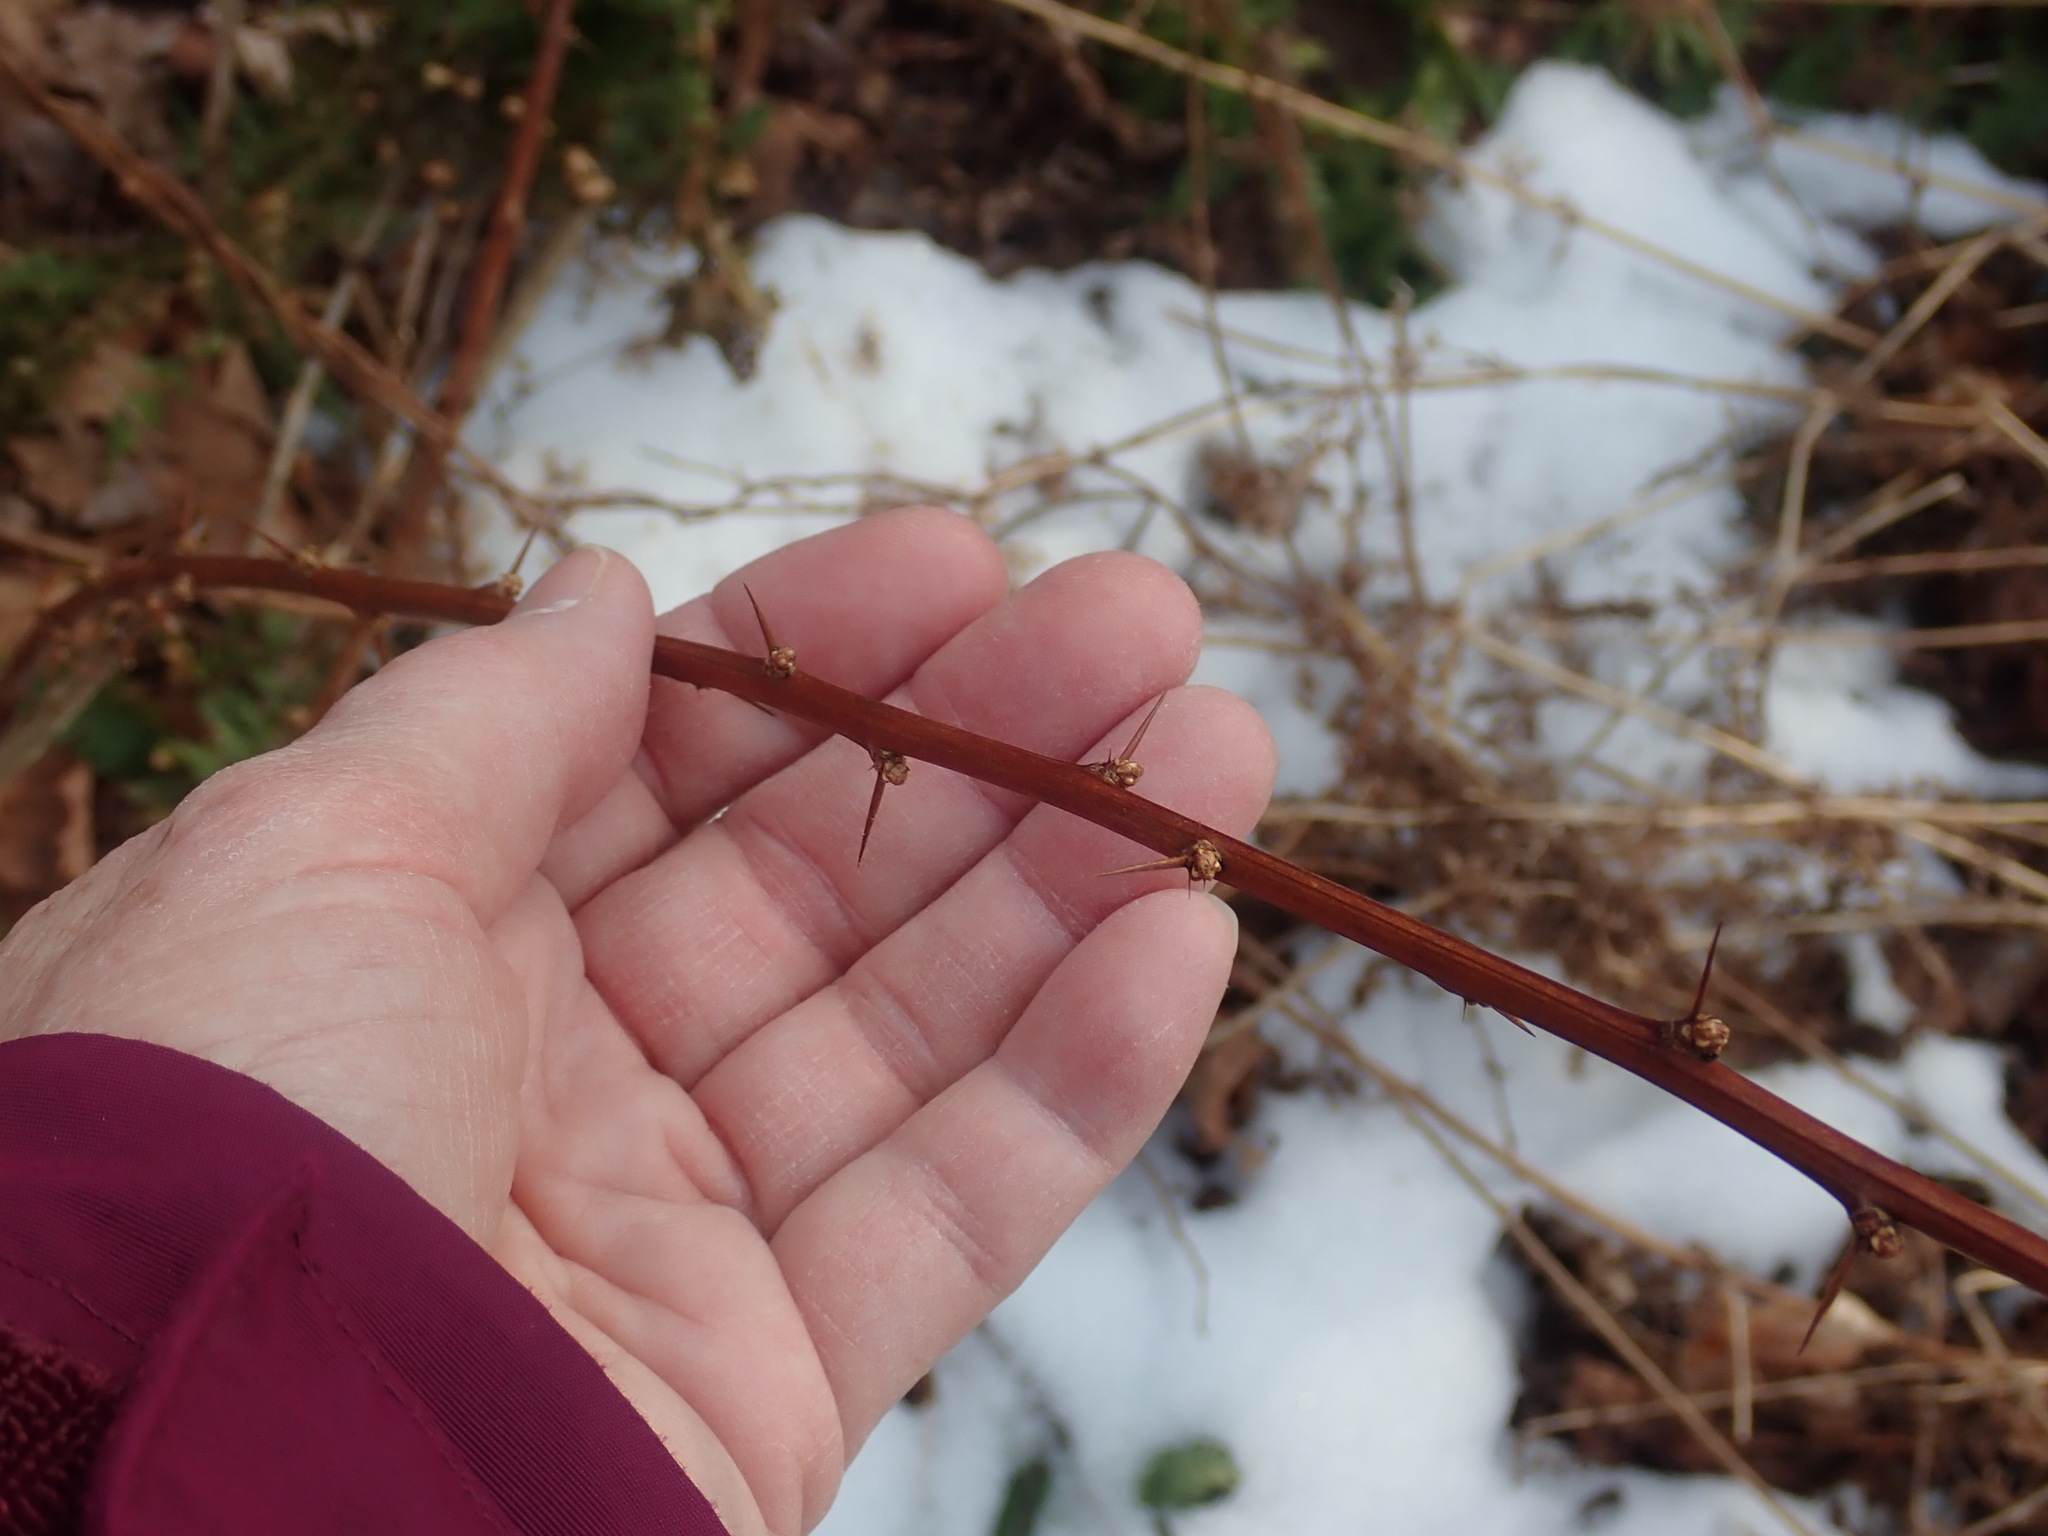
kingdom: Plantae
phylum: Tracheophyta
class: Magnoliopsida
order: Ranunculales
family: Berberidaceae
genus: Berberis
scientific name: Berberis thunbergii
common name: Japanese barberry
